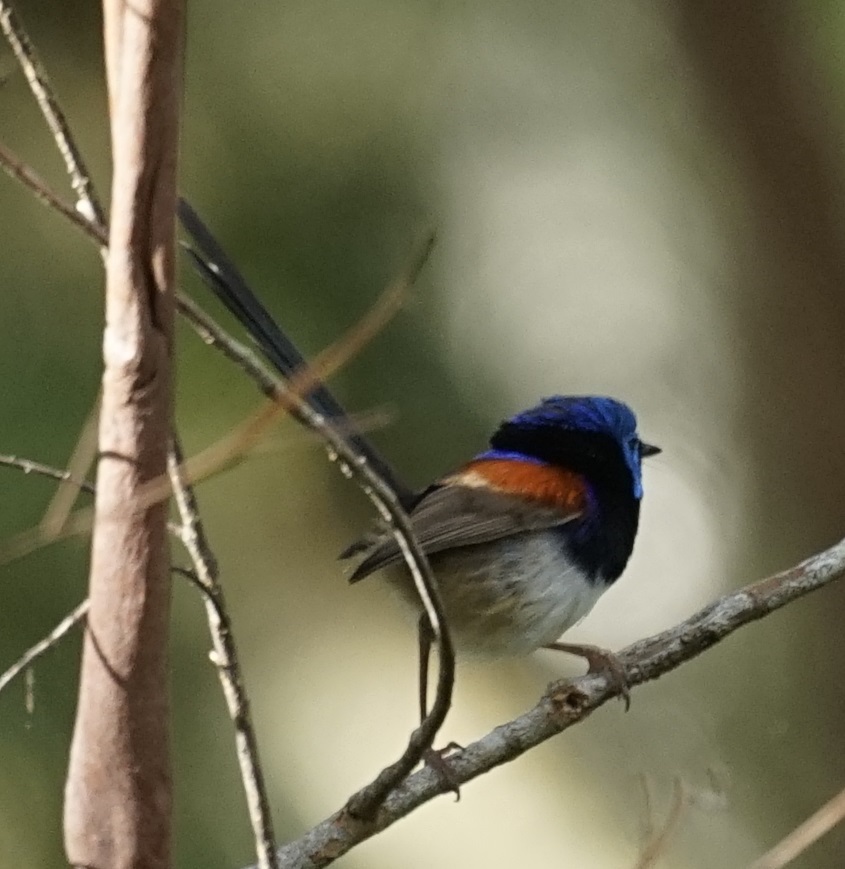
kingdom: Animalia
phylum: Chordata
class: Aves
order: Passeriformes
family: Maluridae
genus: Malurus
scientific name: Malurus lamberti
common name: Variegated fairywren
